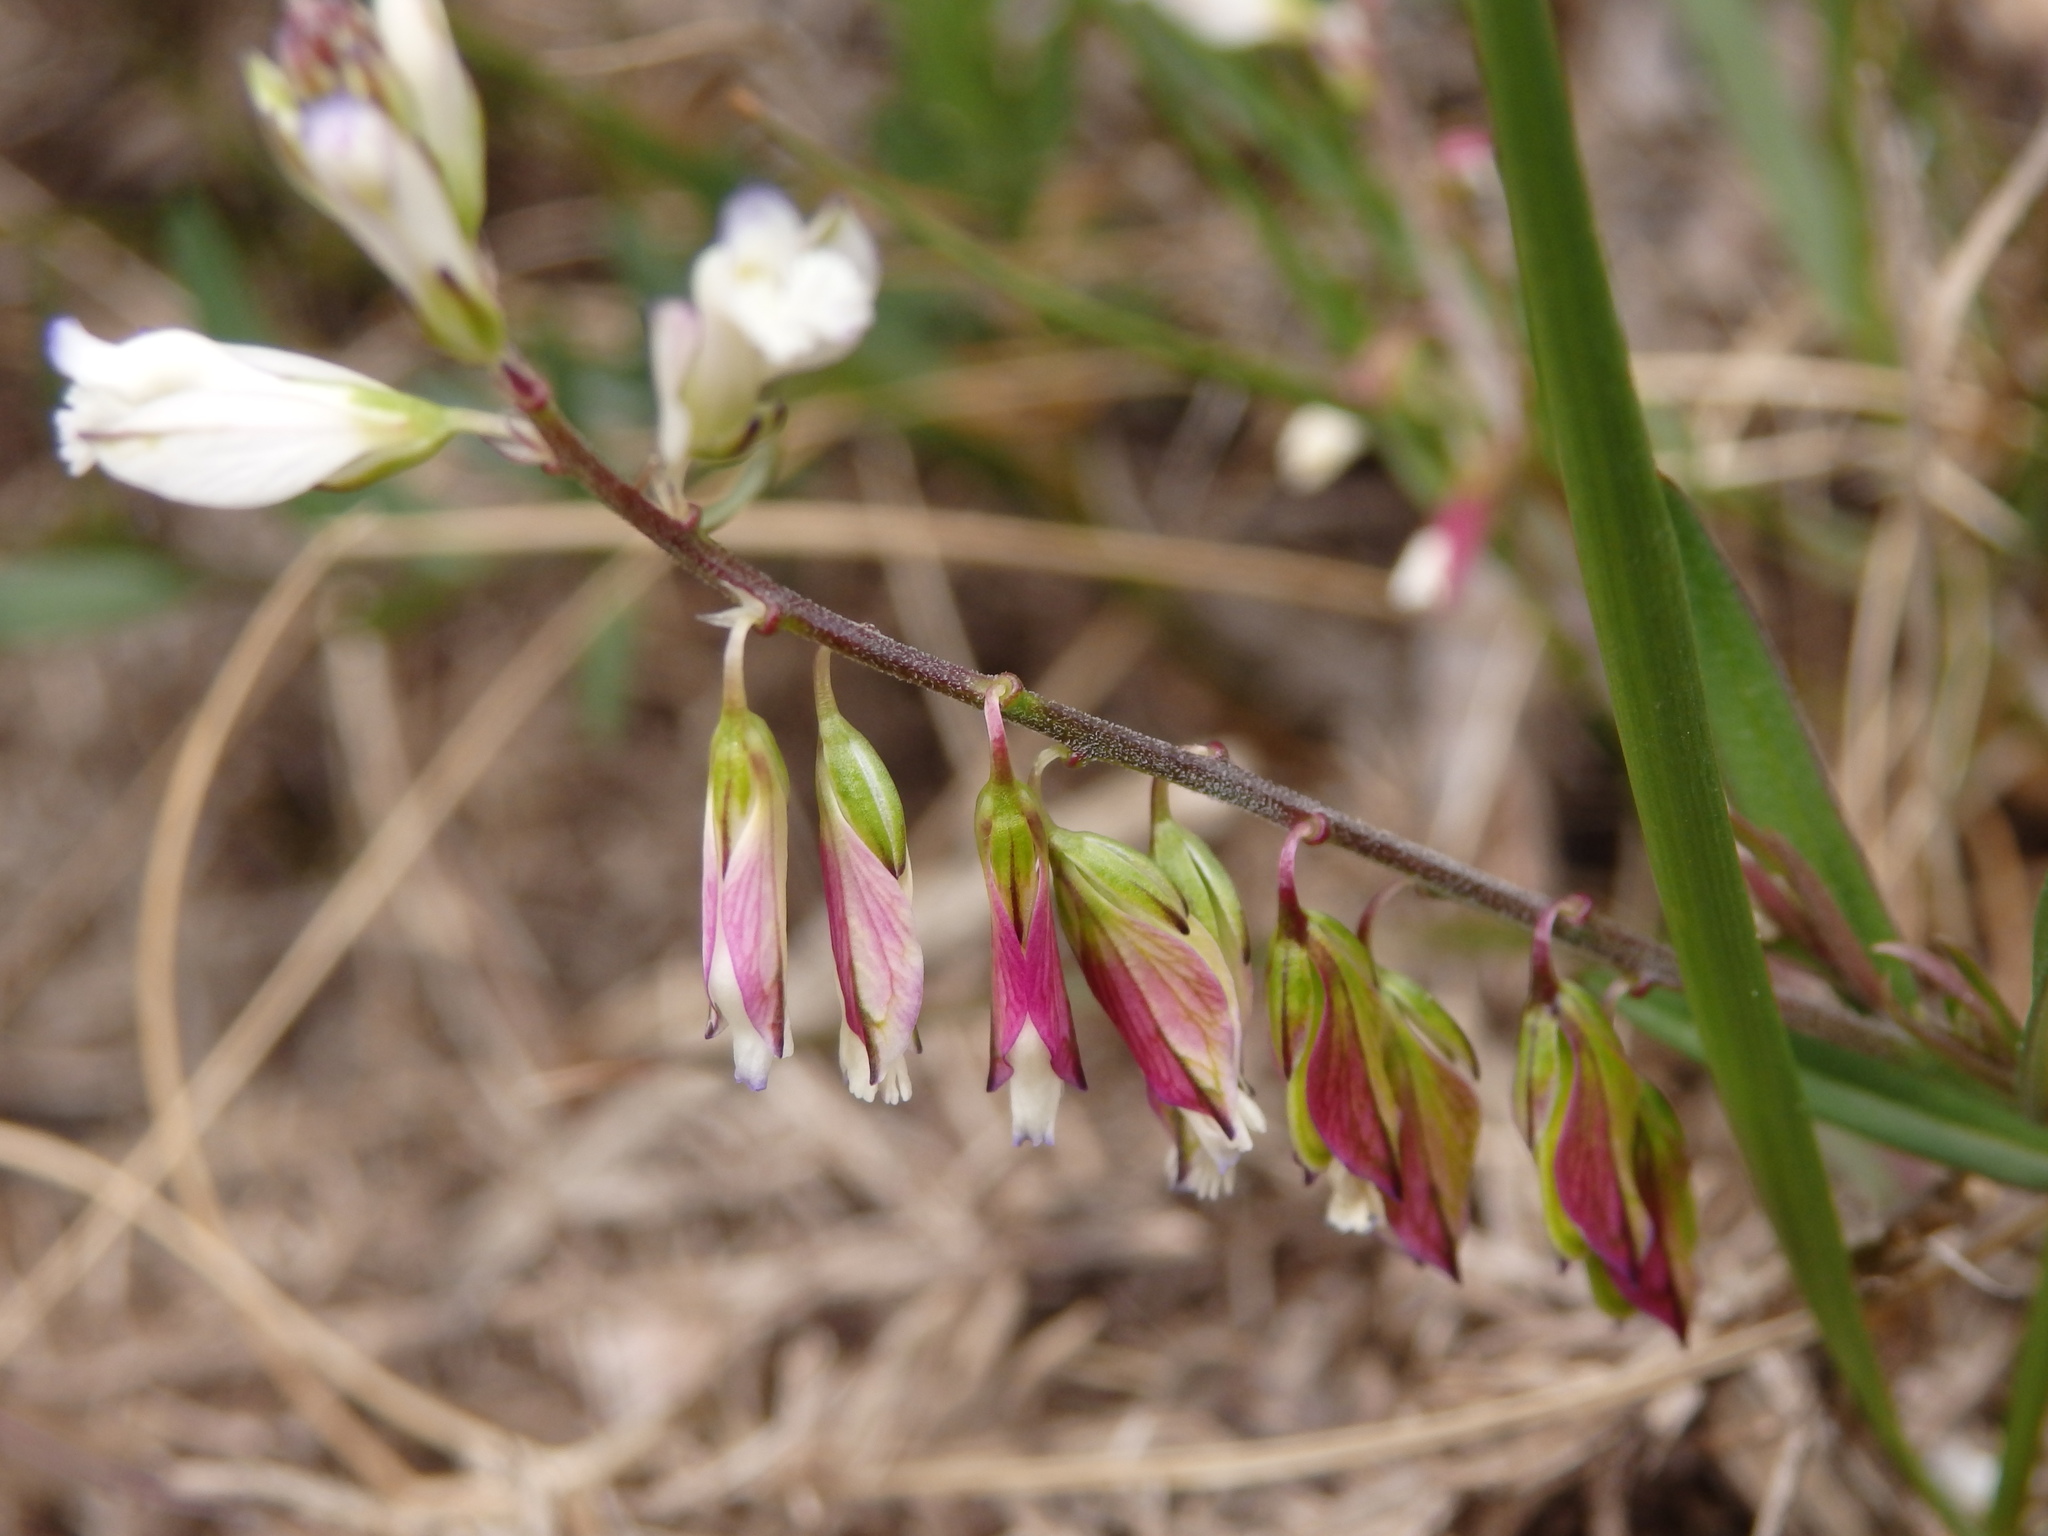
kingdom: Plantae
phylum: Tracheophyta
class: Magnoliopsida
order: Fabales
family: Polygalaceae
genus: Polygala
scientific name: Polygala vulgaris
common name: Common milkwort
